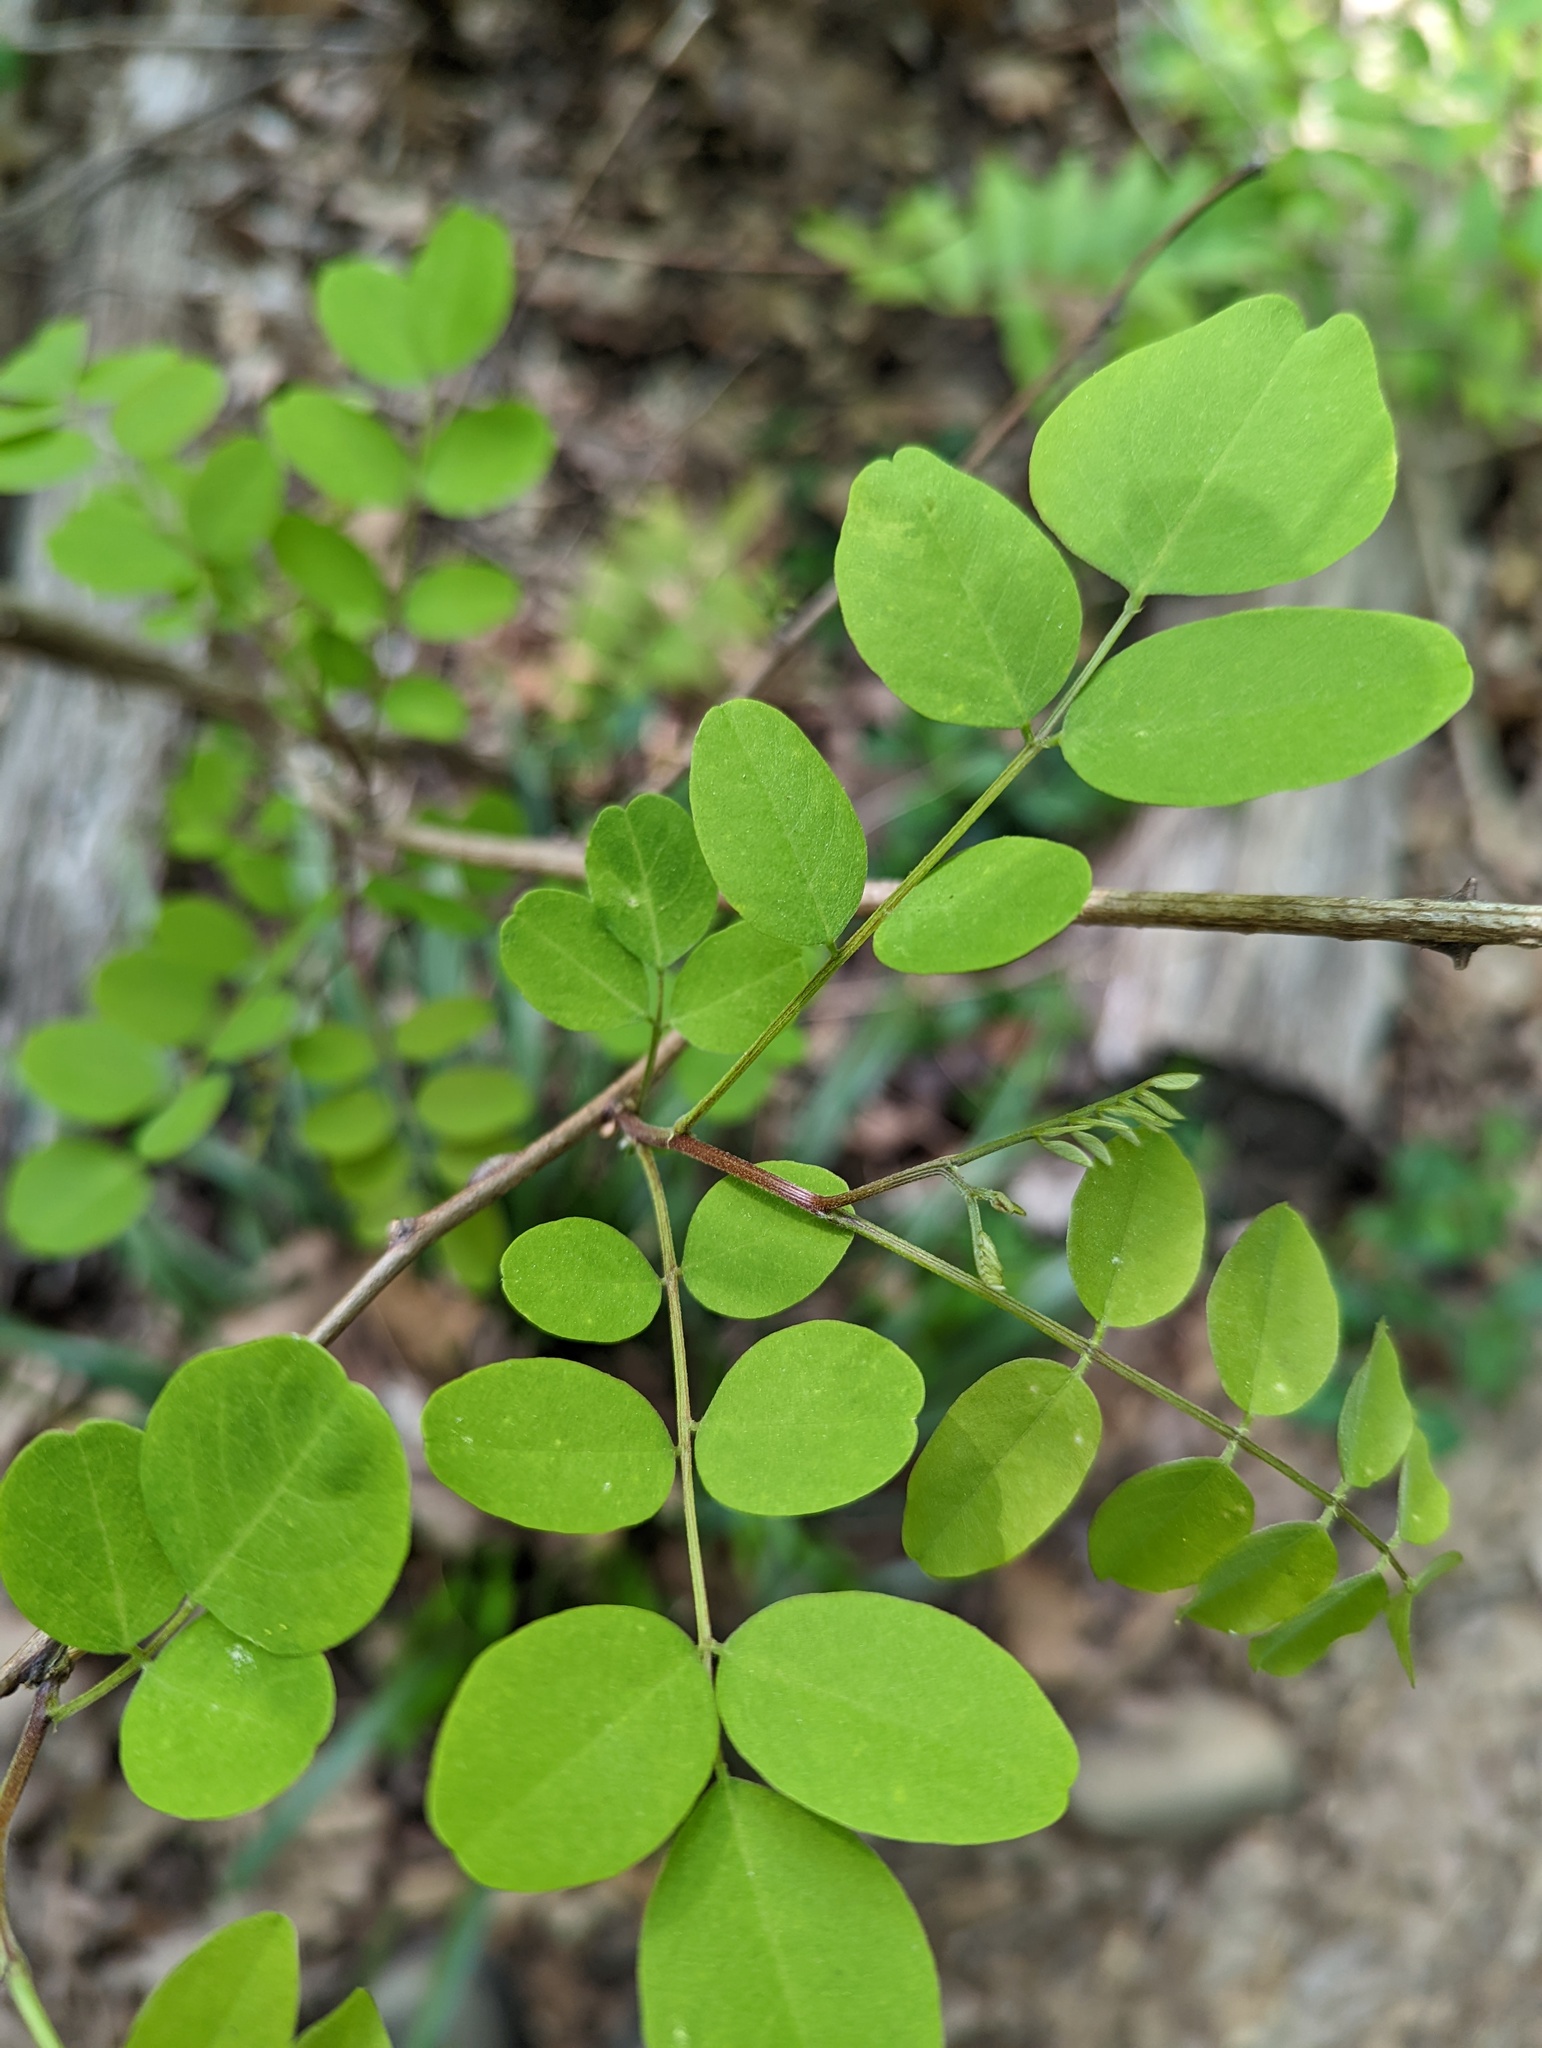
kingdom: Plantae
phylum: Tracheophyta
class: Magnoliopsida
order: Fabales
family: Fabaceae
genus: Robinia
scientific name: Robinia pseudoacacia
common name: Black locust
